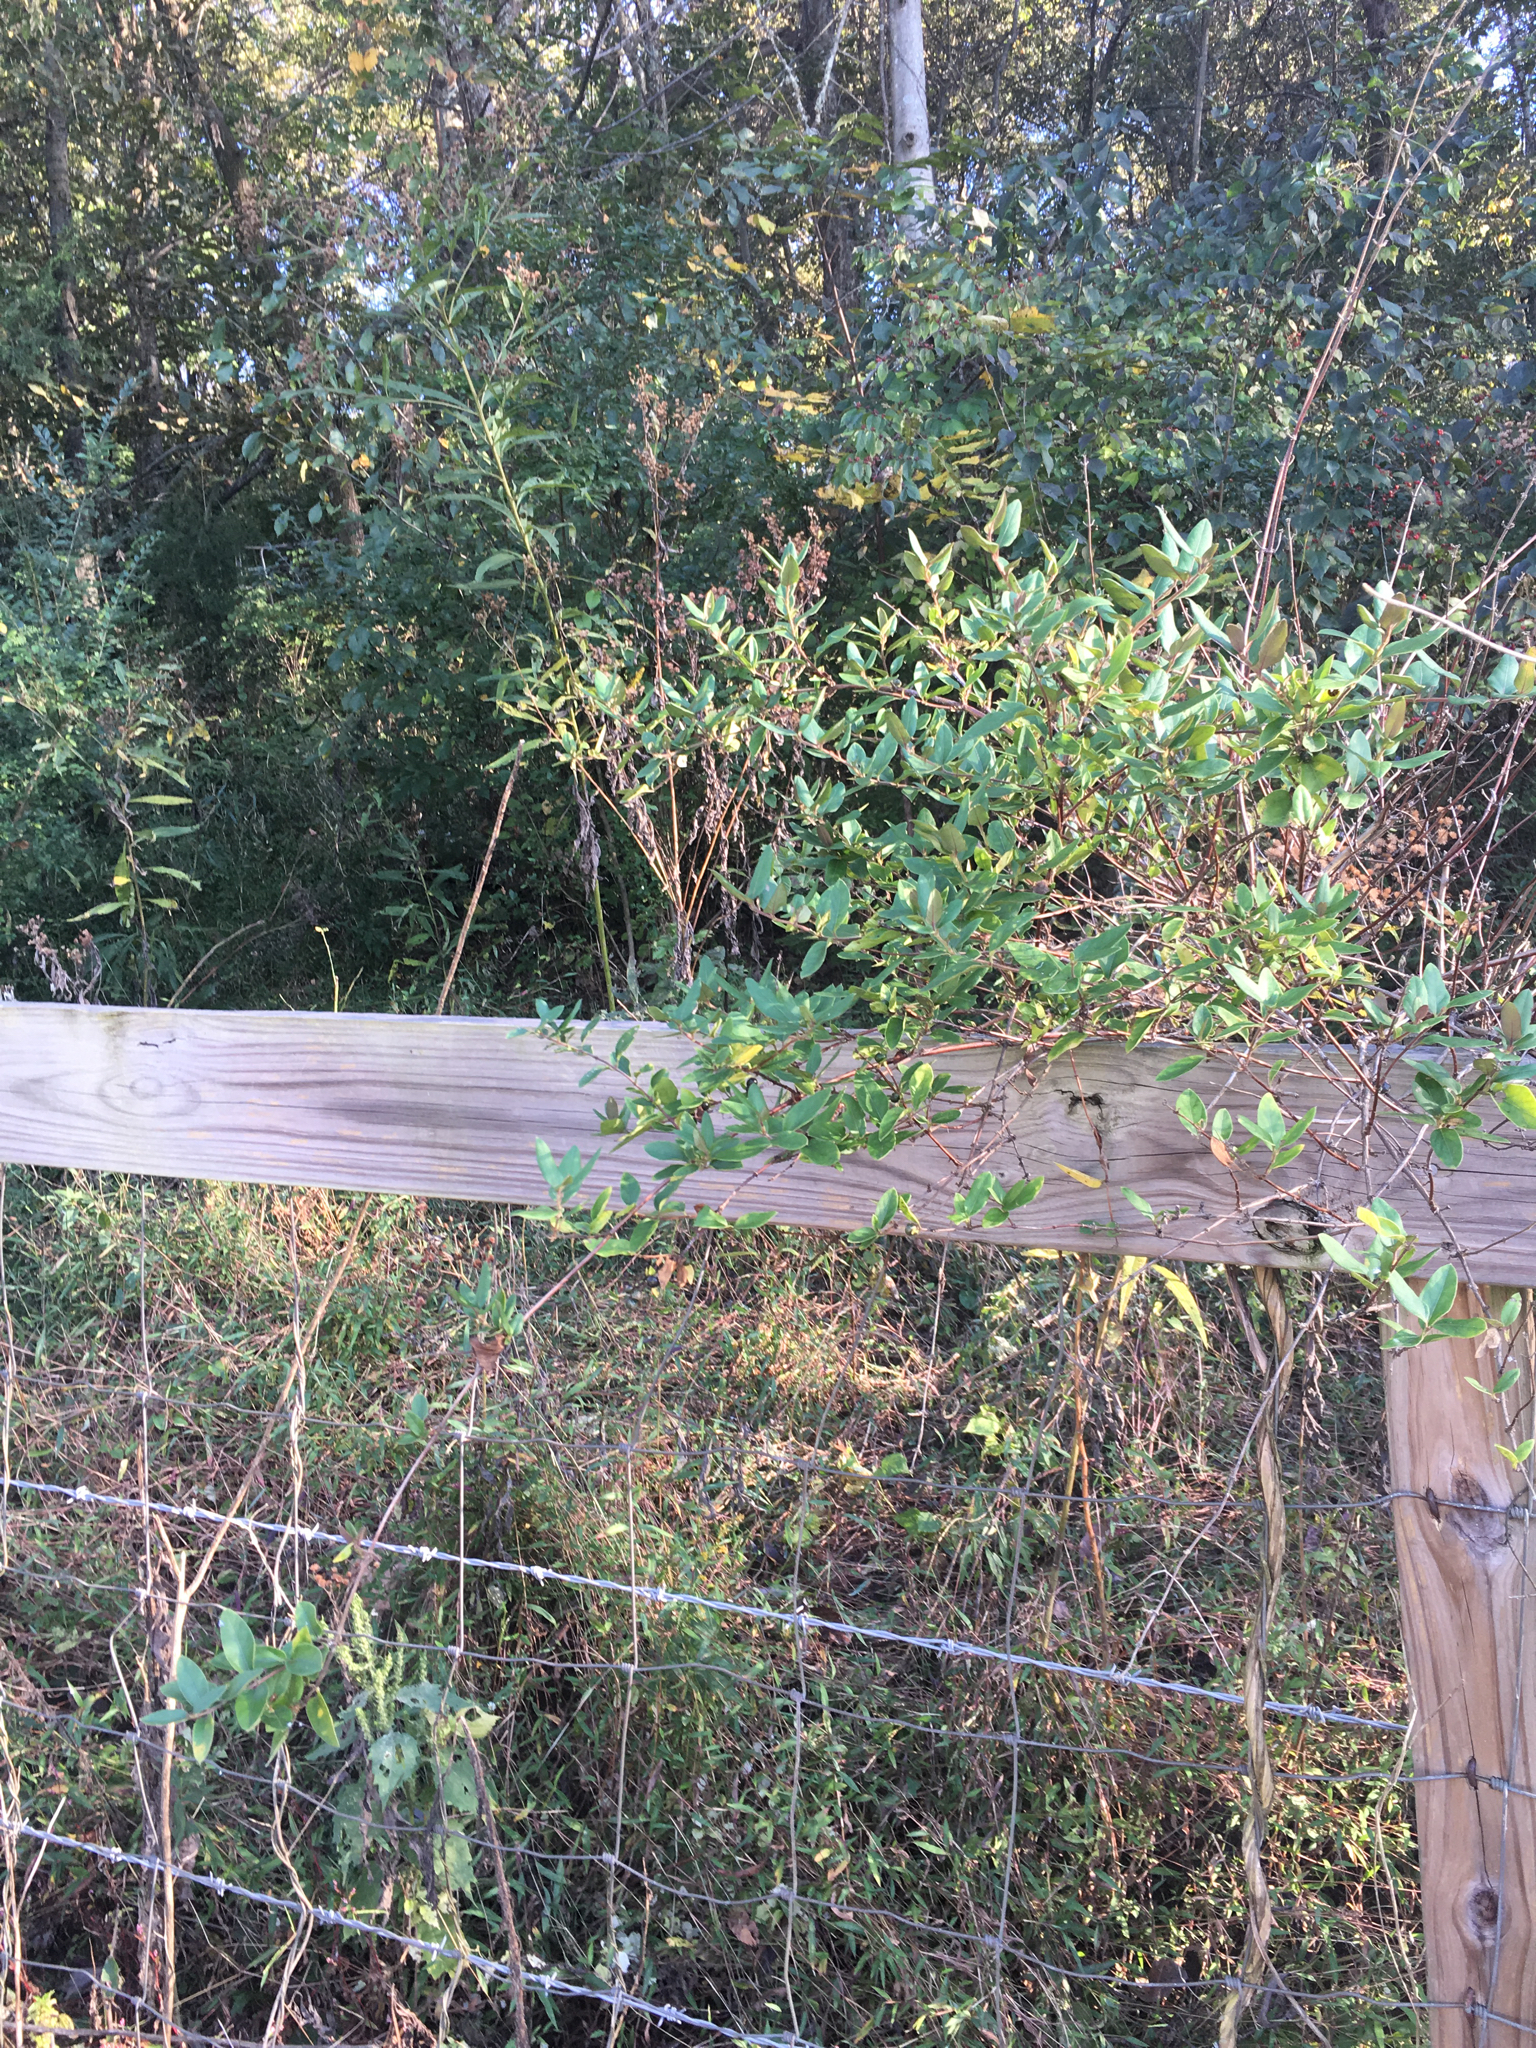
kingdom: Plantae
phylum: Tracheophyta
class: Magnoliopsida
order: Dipsacales
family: Caprifoliaceae
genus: Lonicera
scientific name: Lonicera japonica
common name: Japanese honeysuckle
